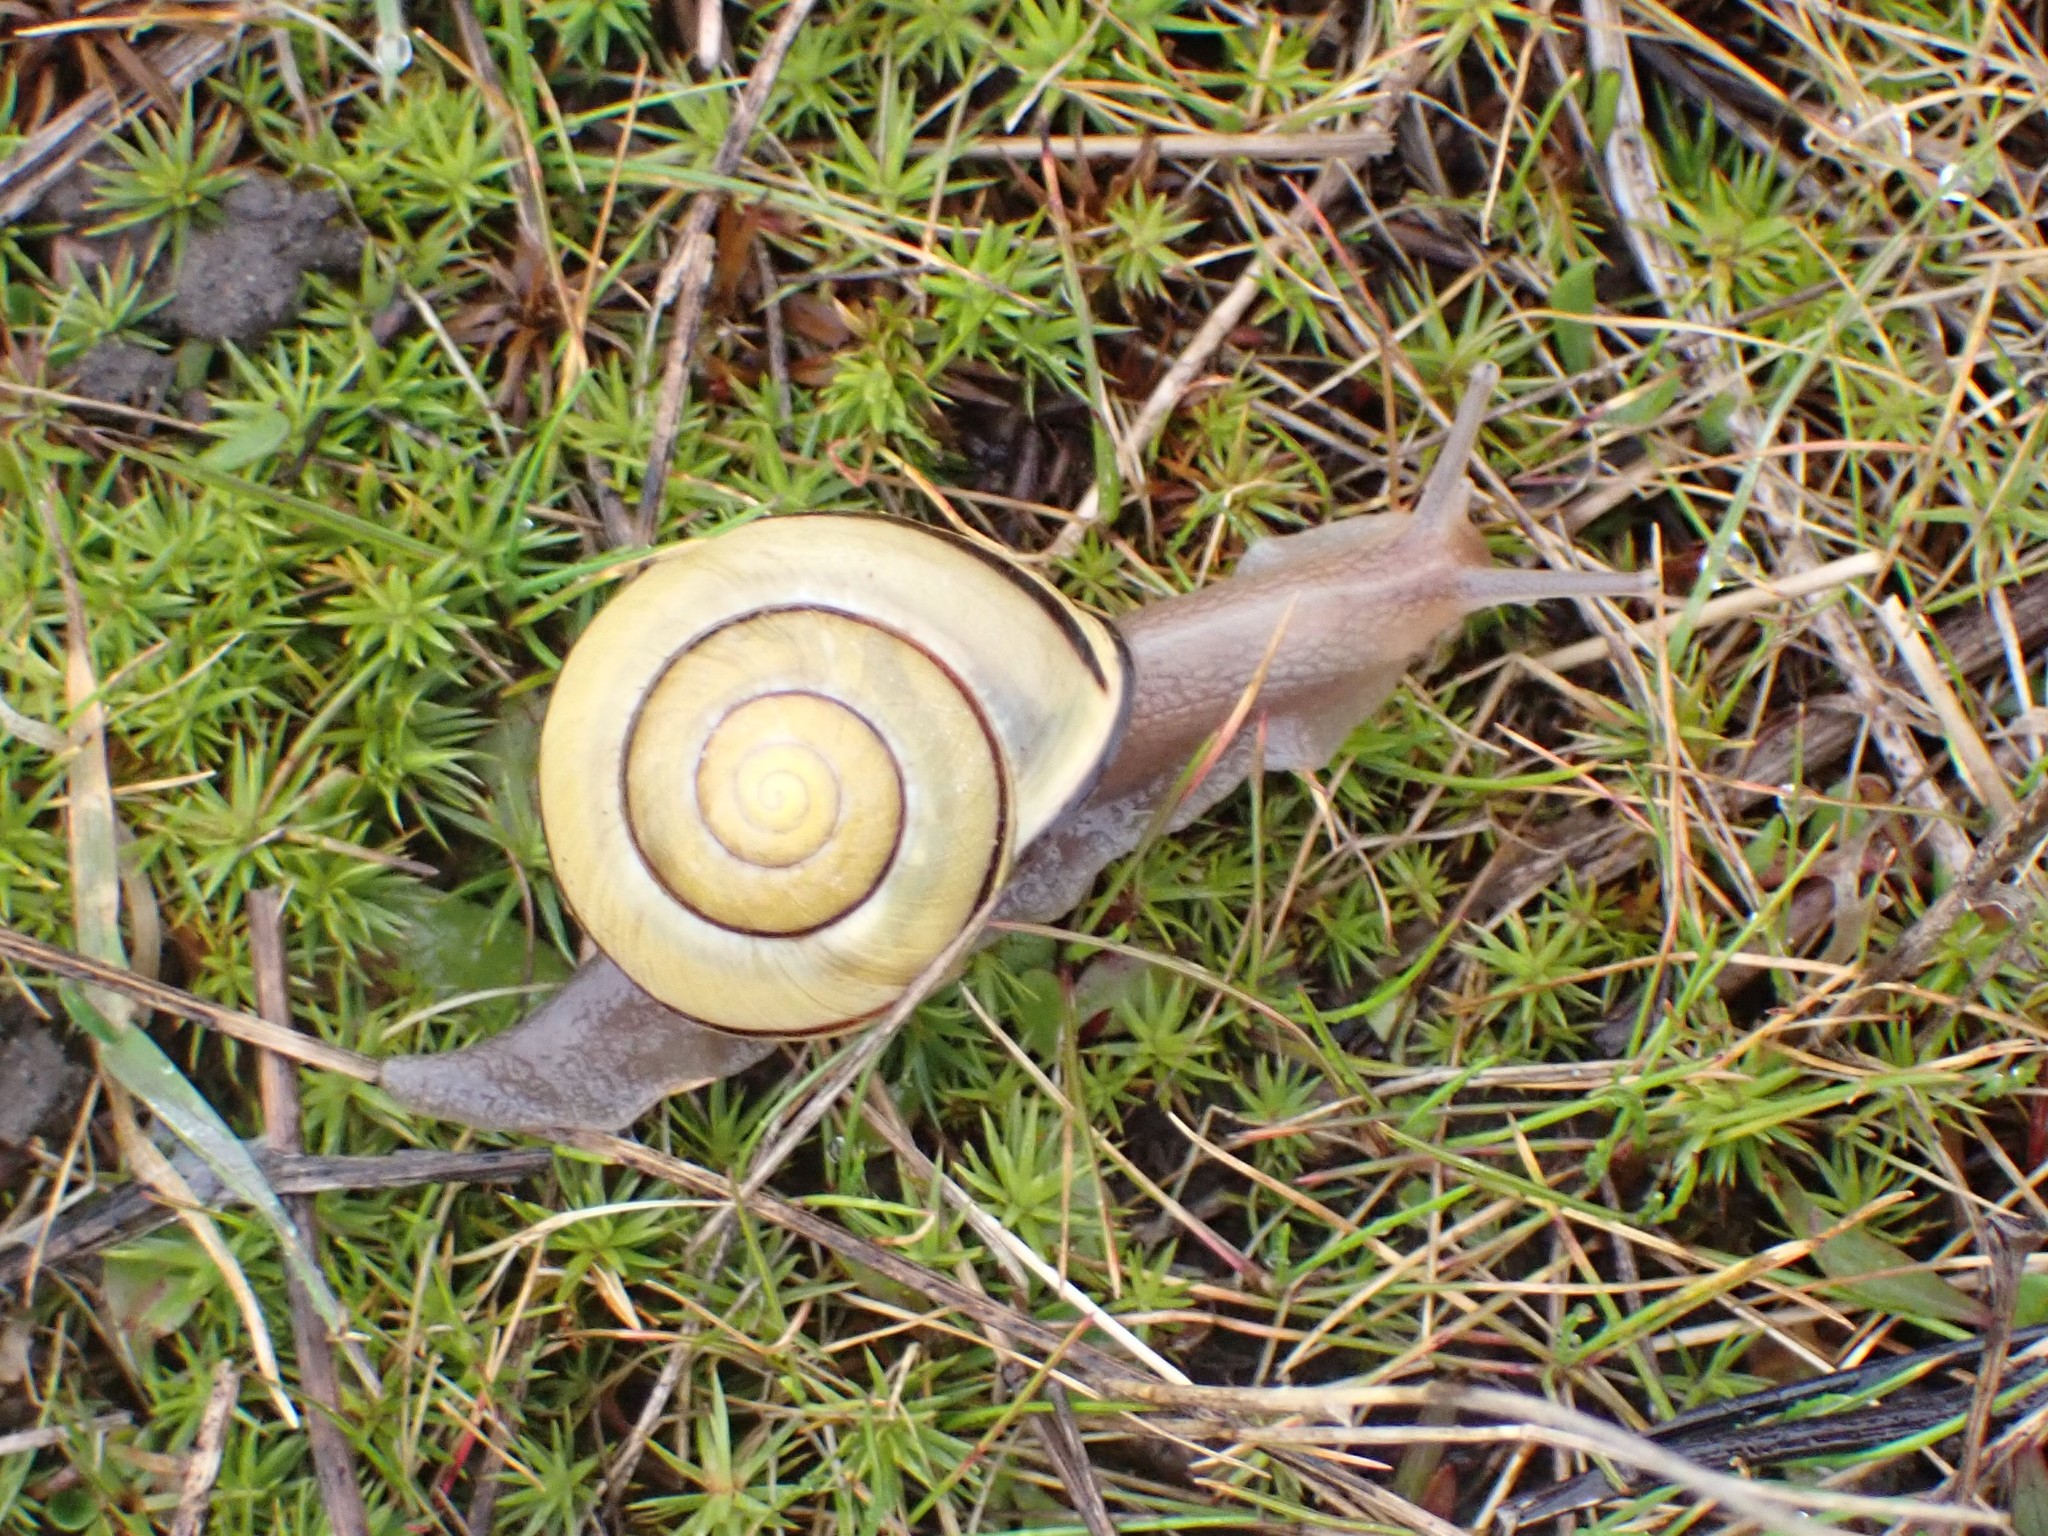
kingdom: Animalia
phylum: Mollusca
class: Gastropoda
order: Stylommatophora
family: Helicidae
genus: Cepaea
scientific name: Cepaea nemoralis
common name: Grovesnail
